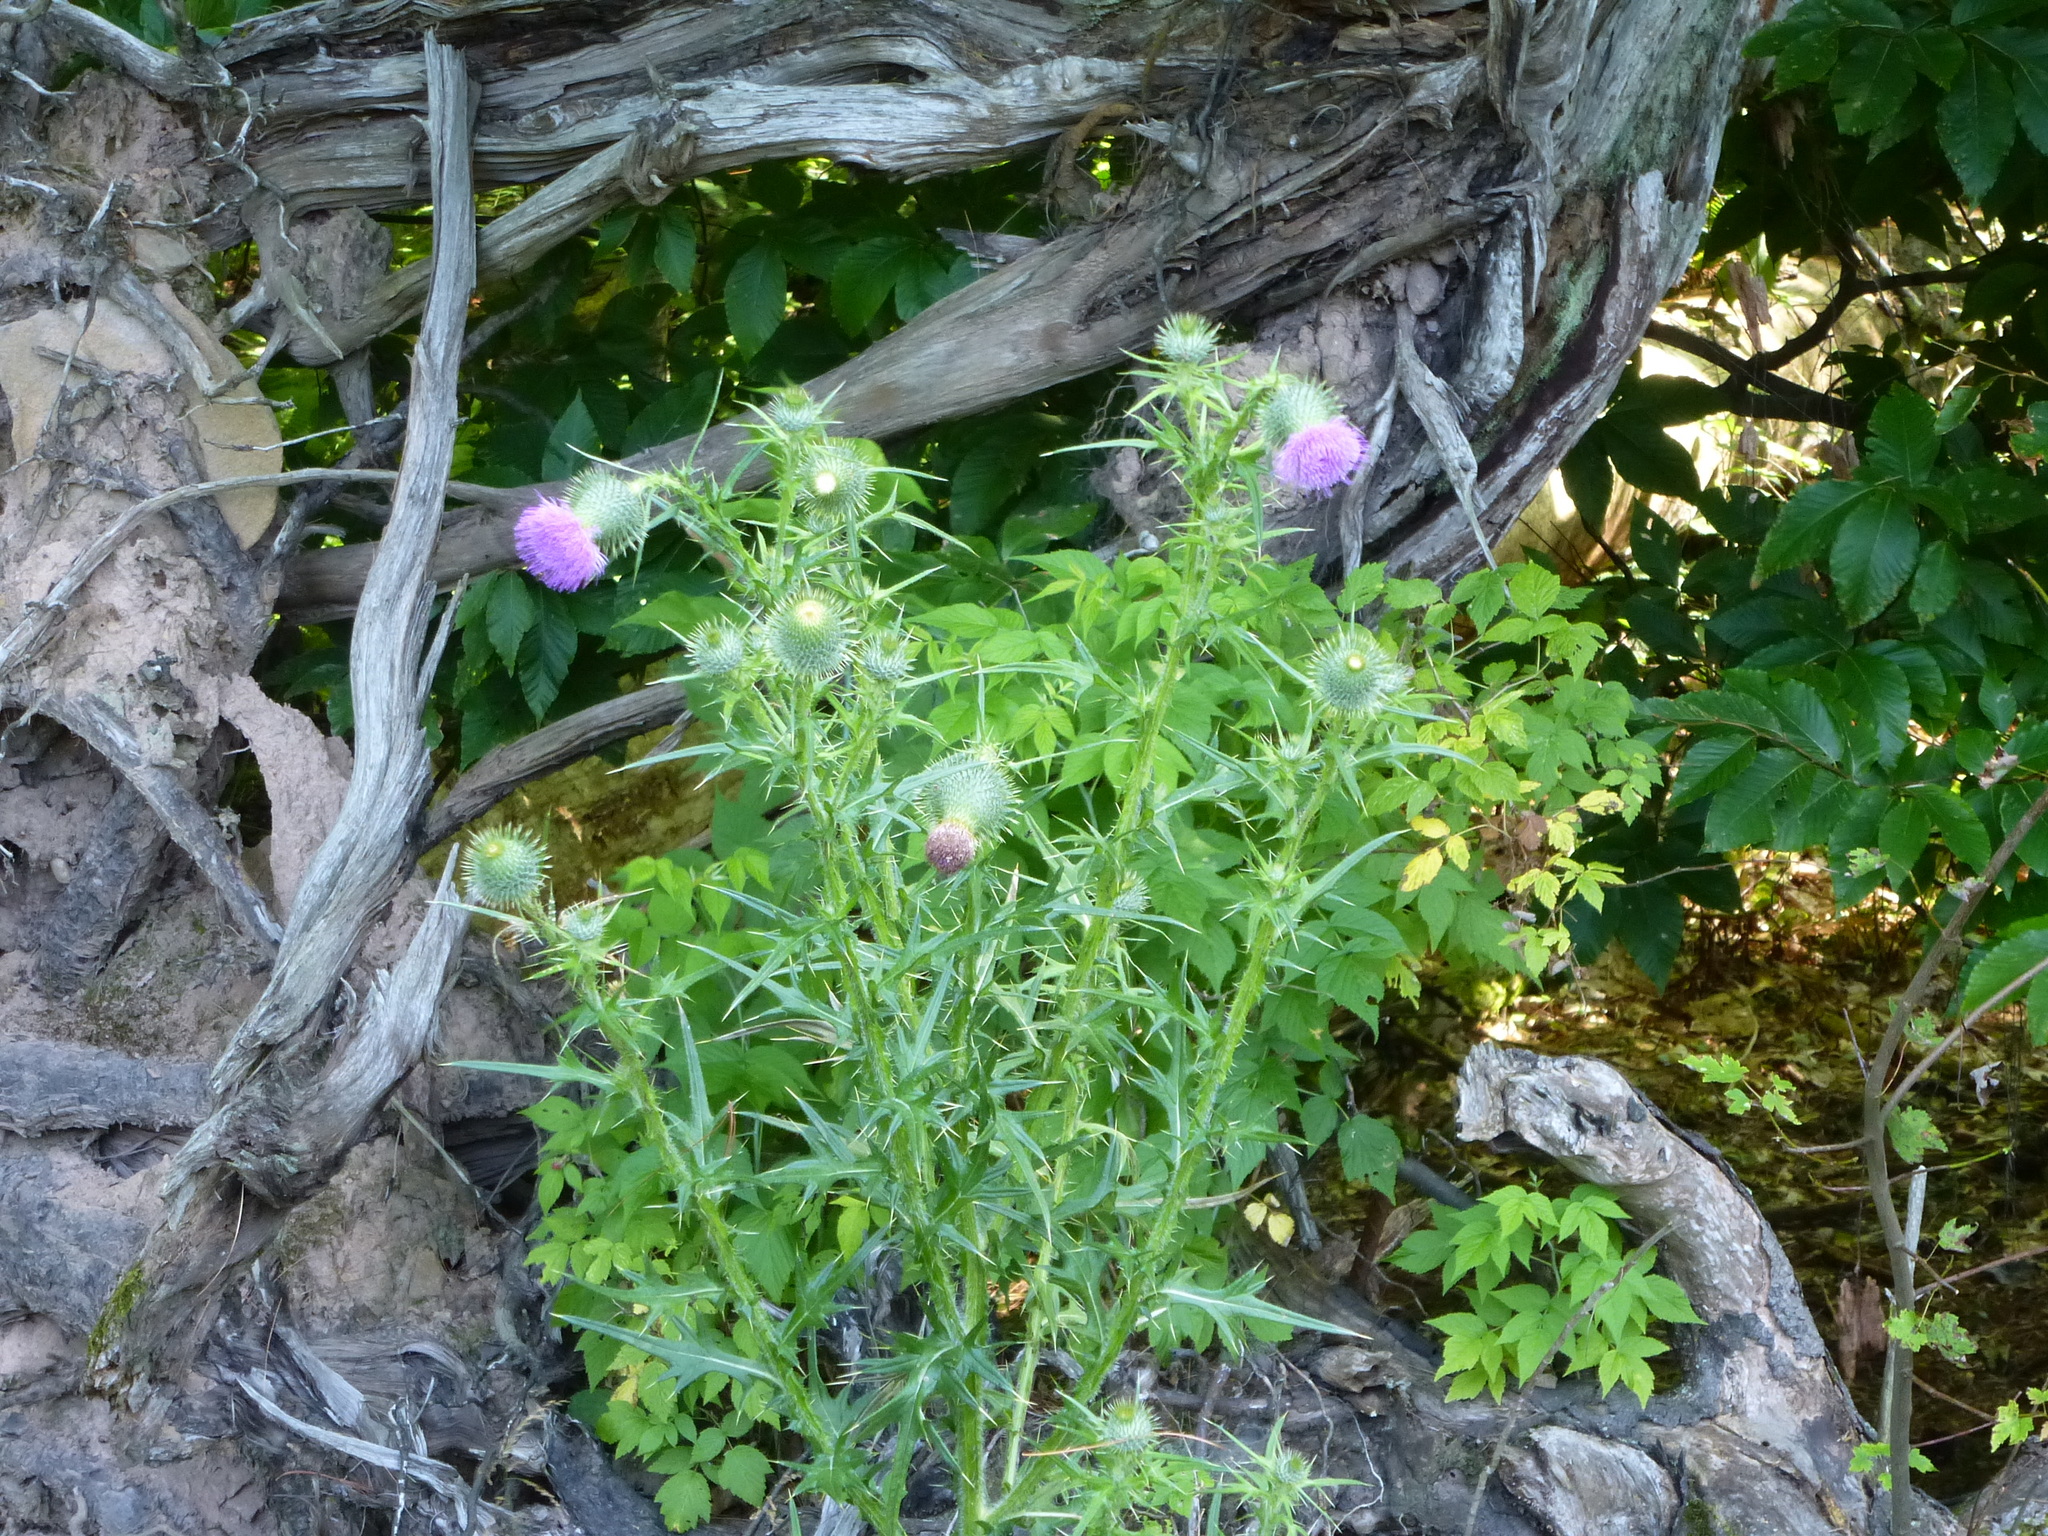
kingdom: Plantae
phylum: Tracheophyta
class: Magnoliopsida
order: Asterales
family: Asteraceae
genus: Cirsium
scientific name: Cirsium vulgare
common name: Bull thistle
